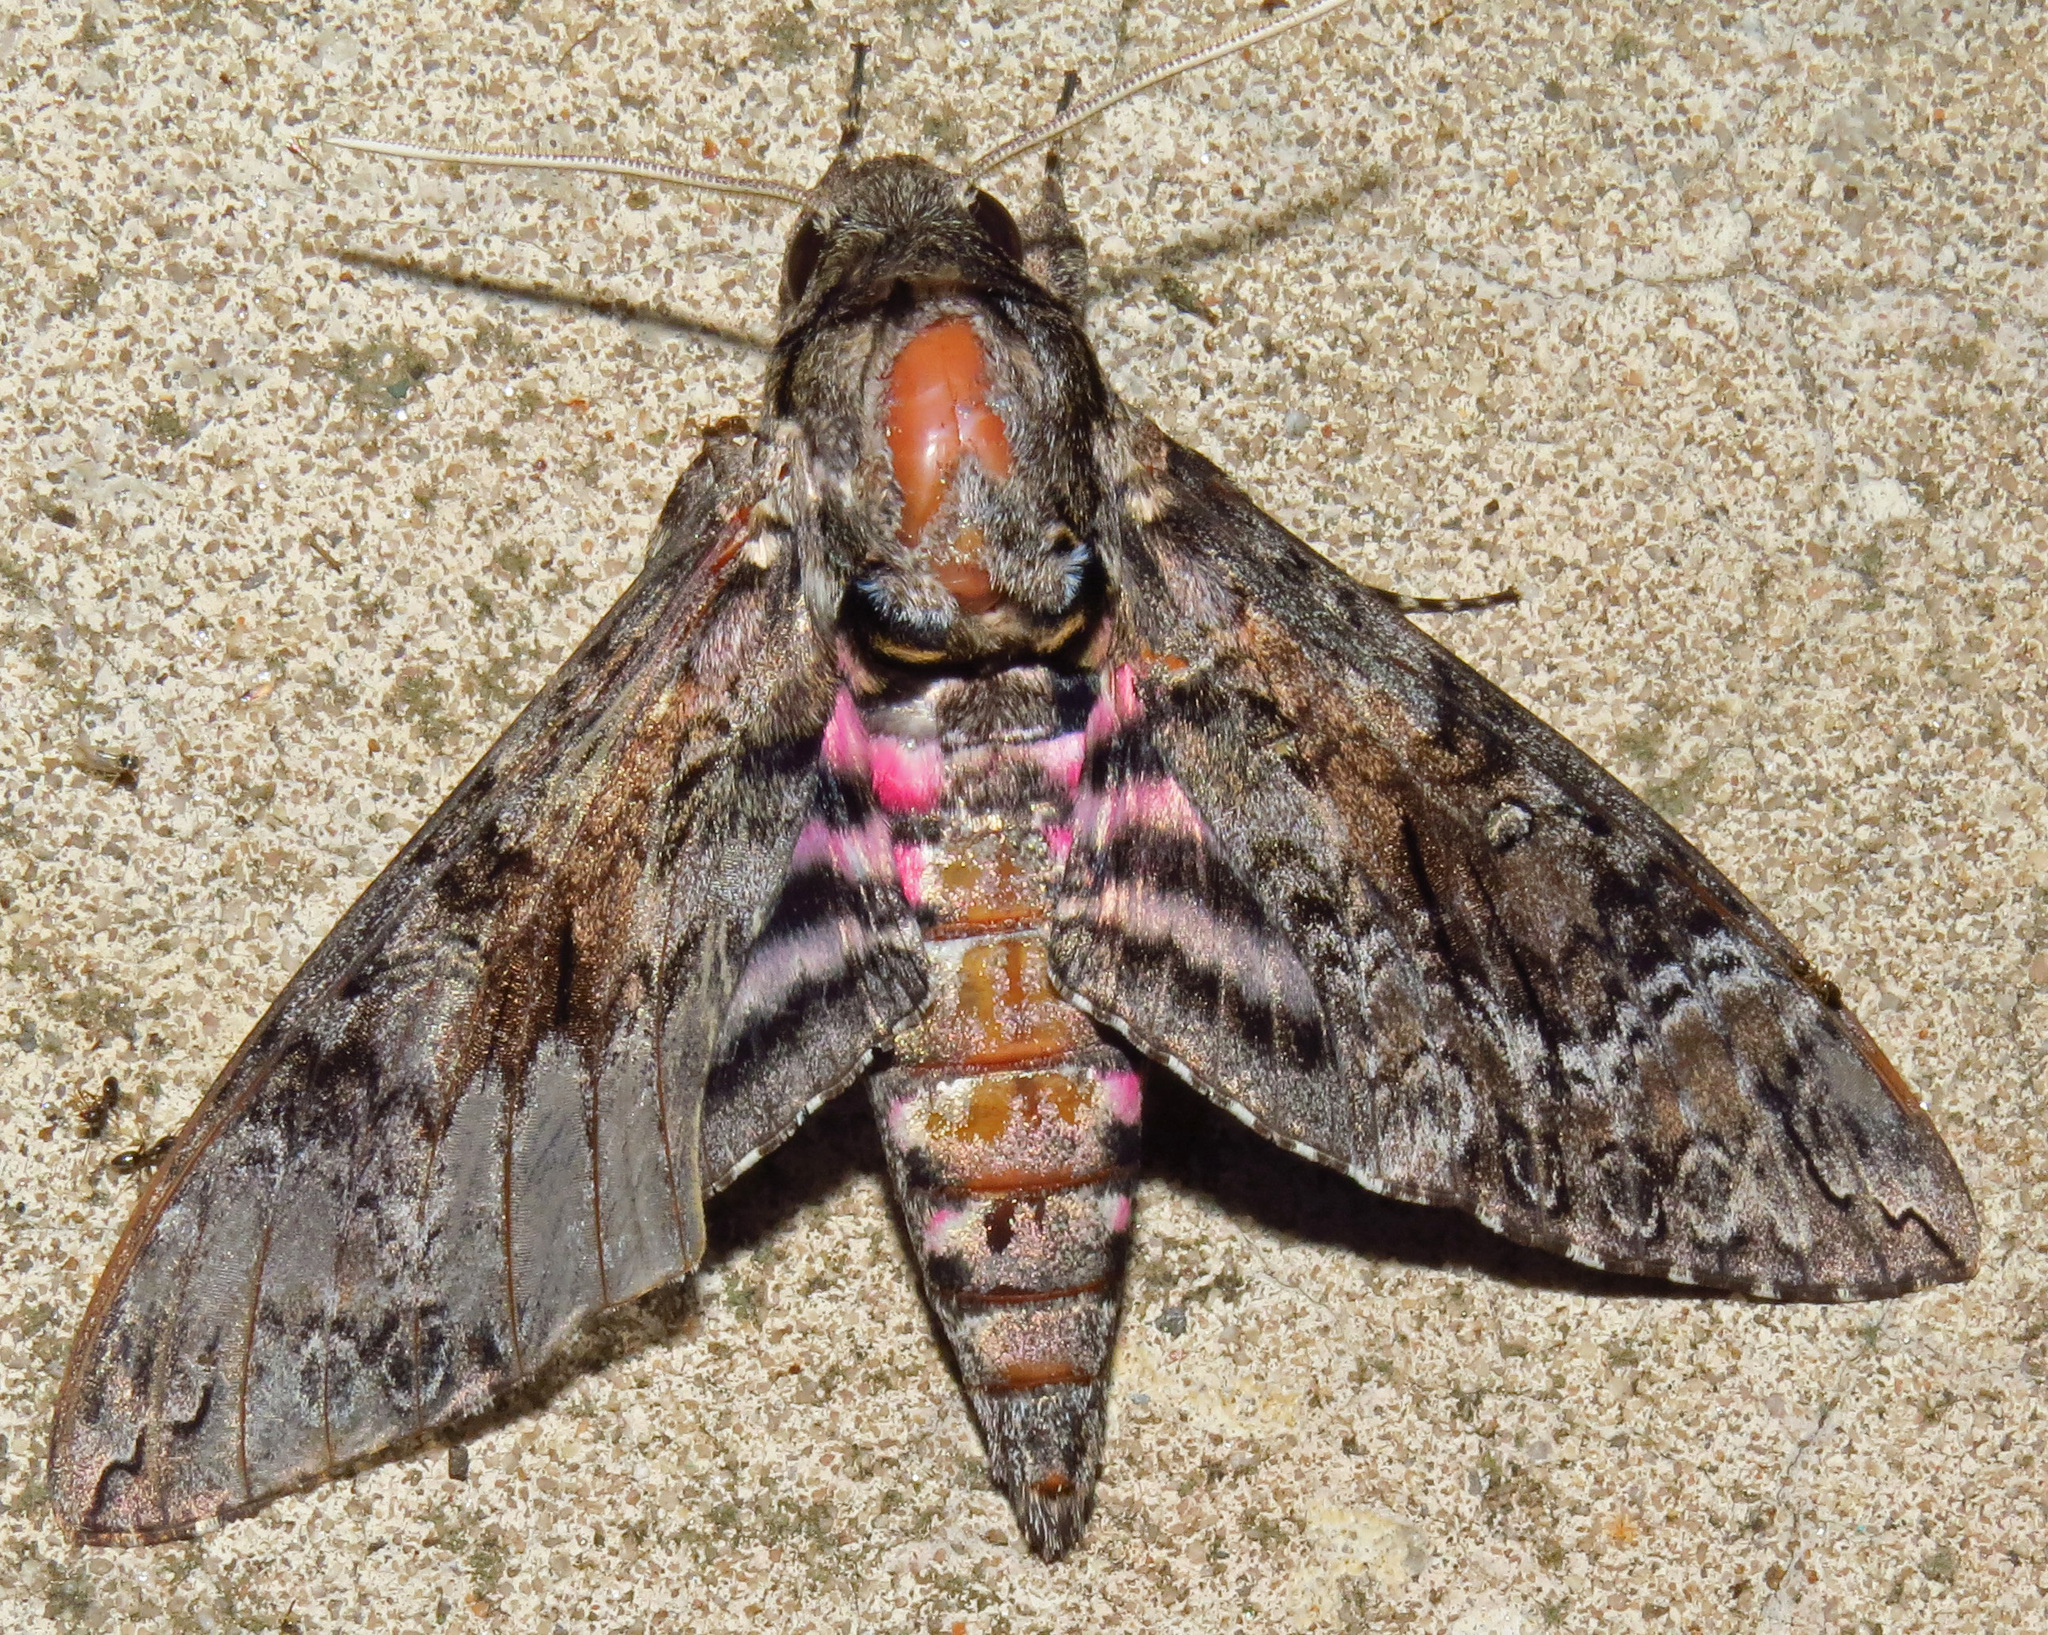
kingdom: Animalia
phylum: Arthropoda
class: Insecta
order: Lepidoptera
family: Sphingidae
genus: Agrius
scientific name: Agrius cingulata
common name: Pink-spotted hawkmoth
